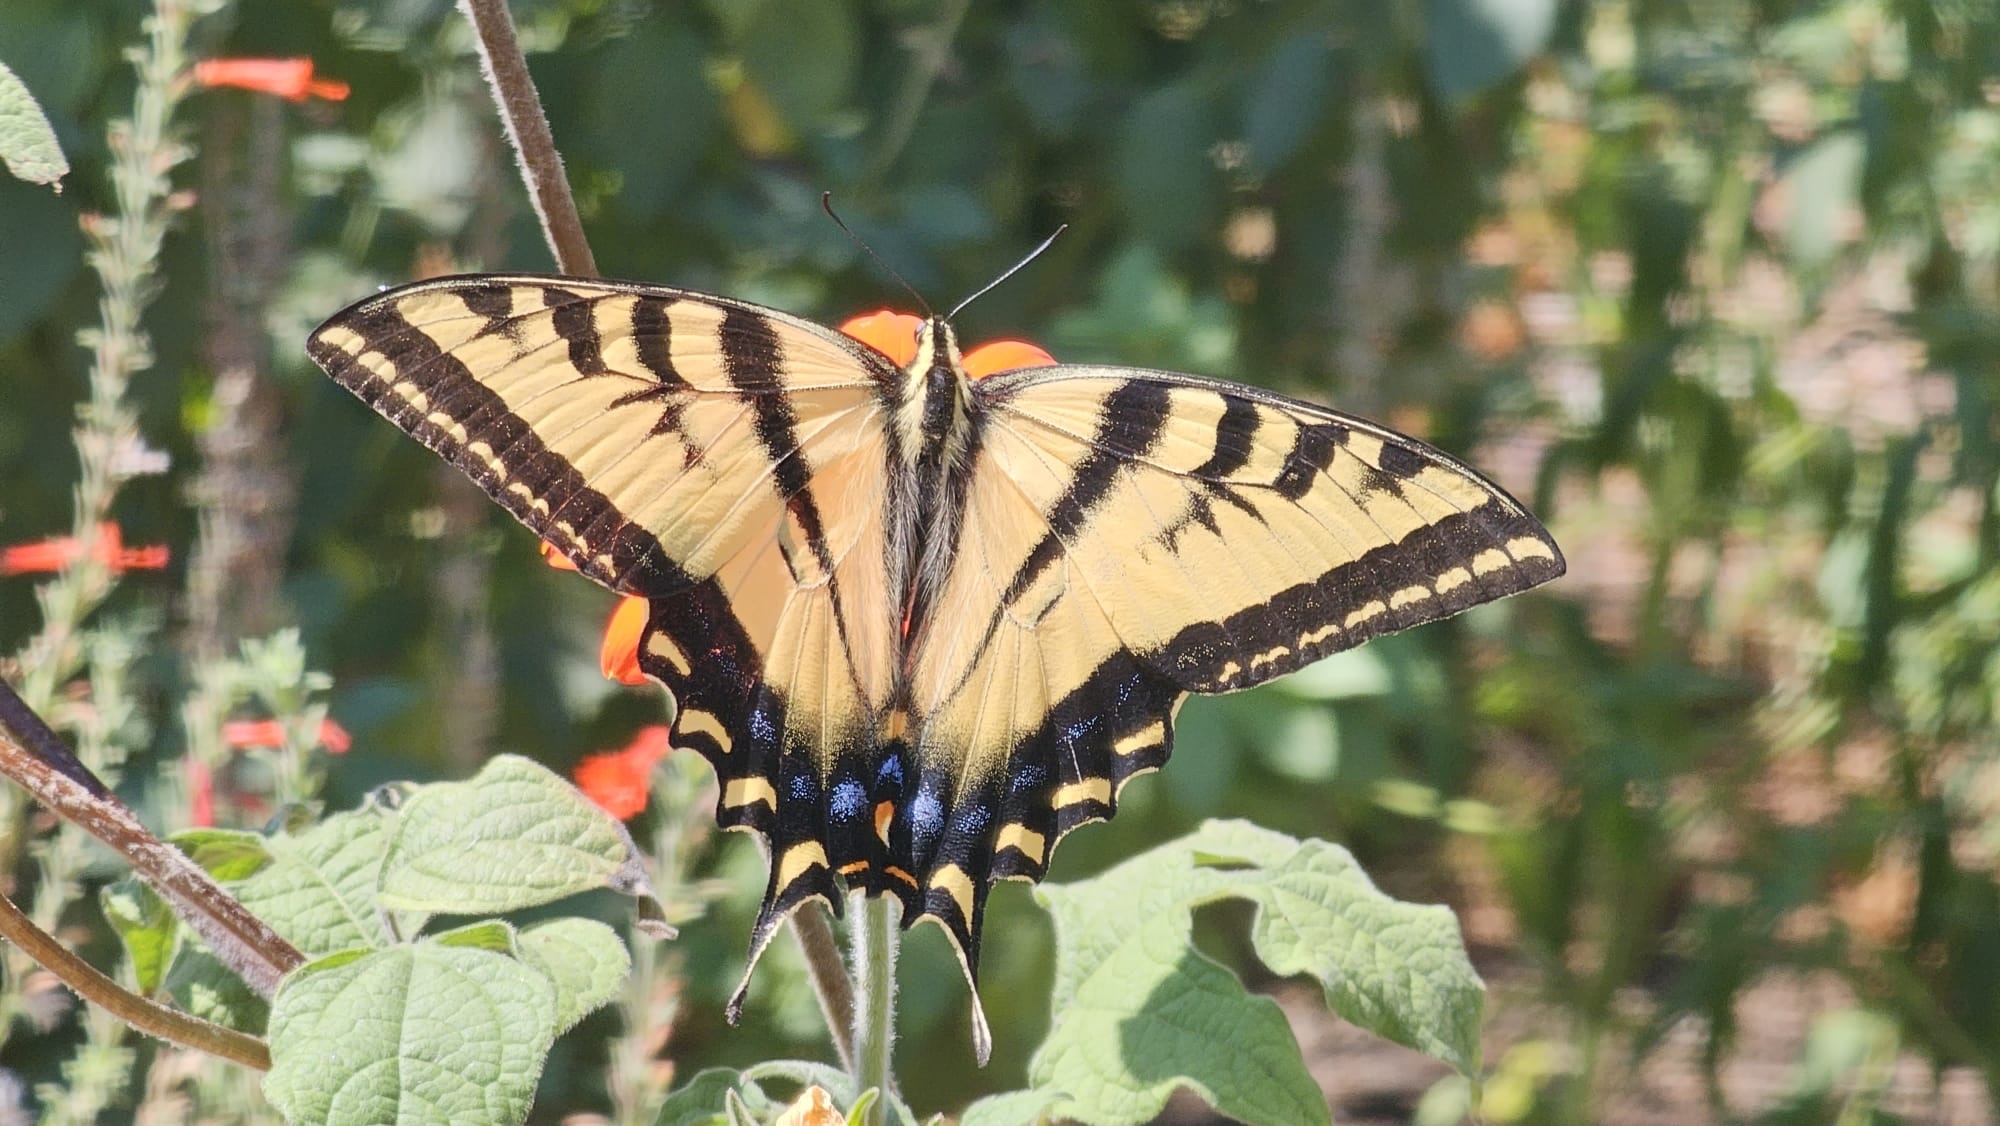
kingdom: Animalia
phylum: Arthropoda
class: Insecta
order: Lepidoptera
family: Papilionidae
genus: Papilio
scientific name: Papilio rutulus
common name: Western tiger swallowtail
